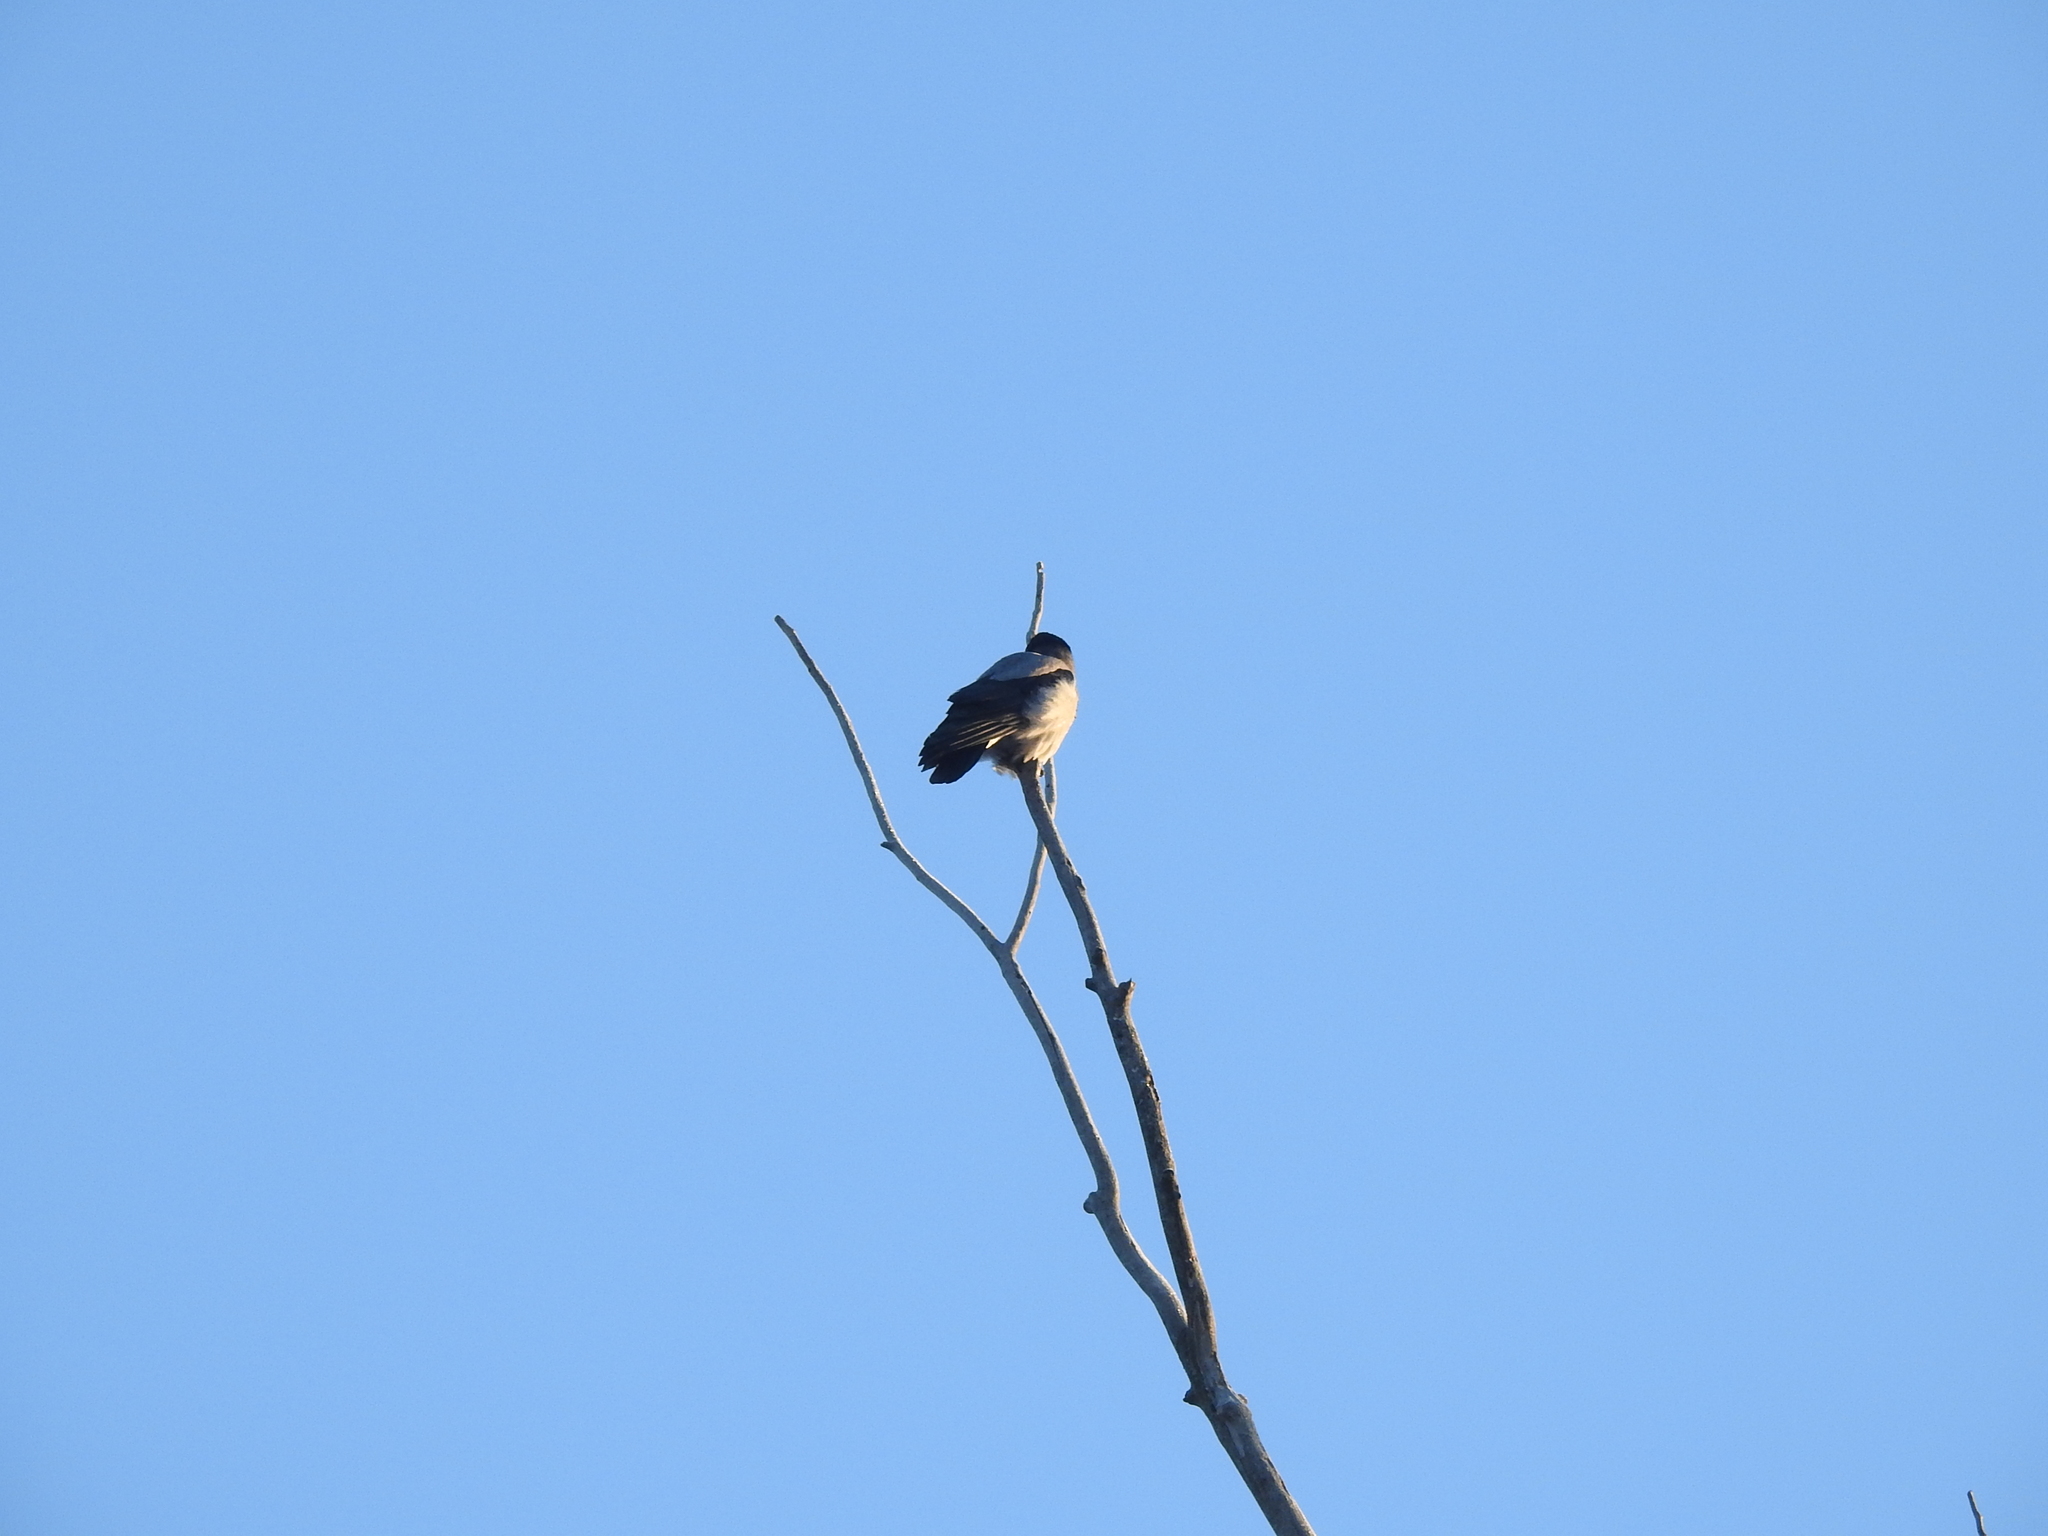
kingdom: Animalia
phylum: Chordata
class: Aves
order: Passeriformes
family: Corvidae
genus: Corvus
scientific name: Corvus cornix
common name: Hooded crow
